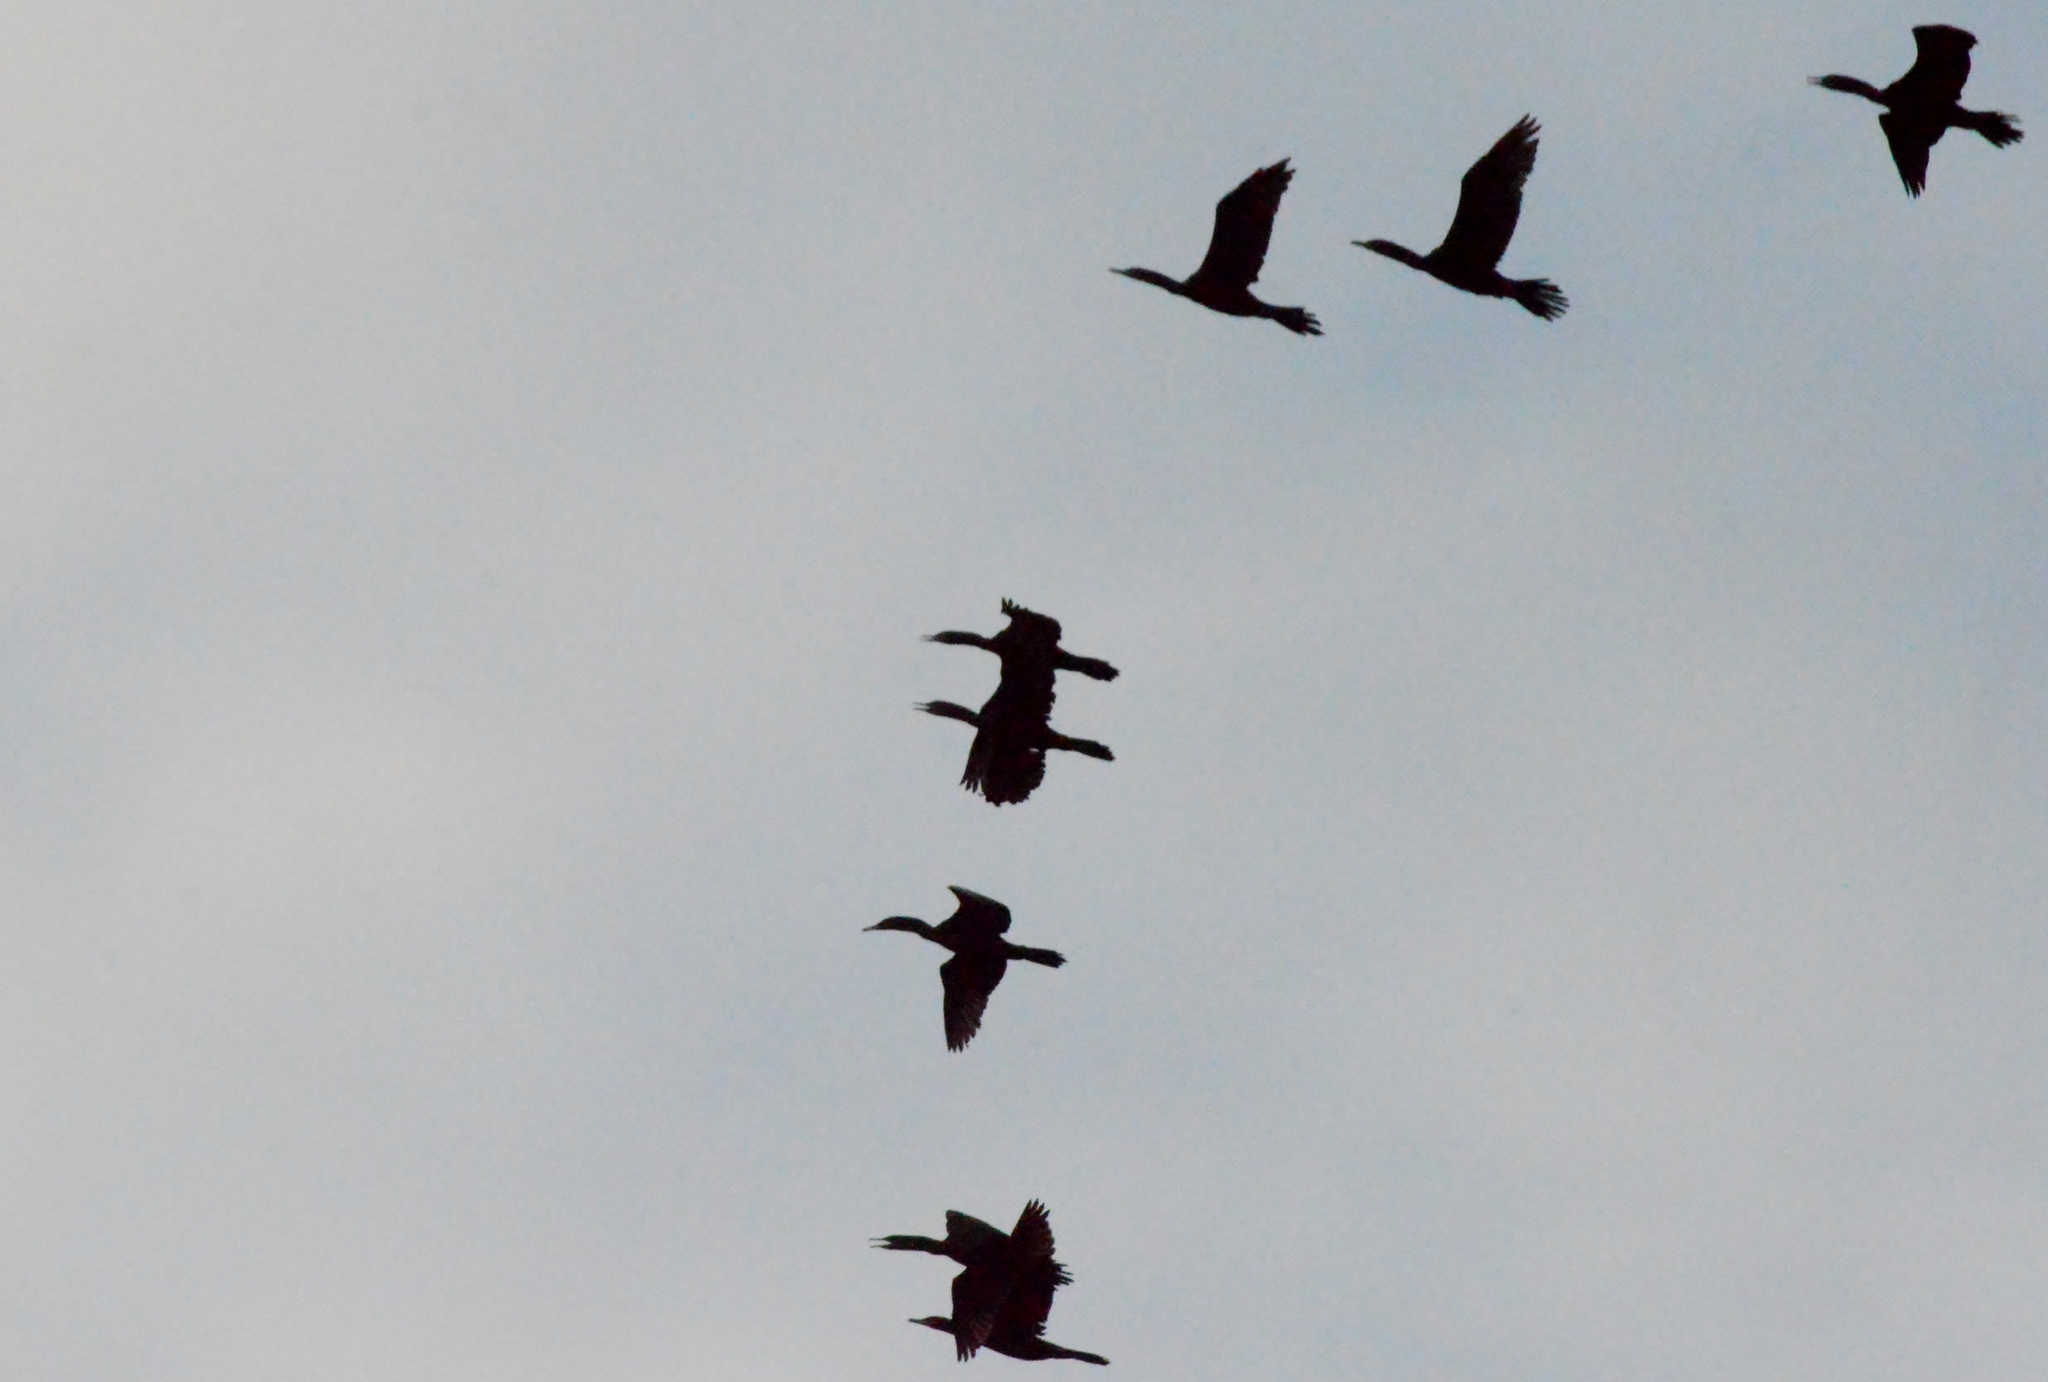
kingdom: Animalia
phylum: Chordata
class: Aves
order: Suliformes
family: Phalacrocoracidae
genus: Phalacrocorax
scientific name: Phalacrocorax brasilianus
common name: Neotropic cormorant
